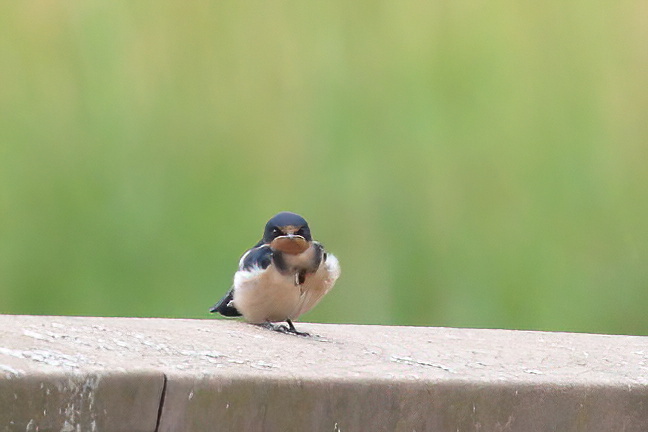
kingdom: Animalia
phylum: Chordata
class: Aves
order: Passeriformes
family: Hirundinidae
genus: Hirundo
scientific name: Hirundo rustica
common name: Barn swallow
